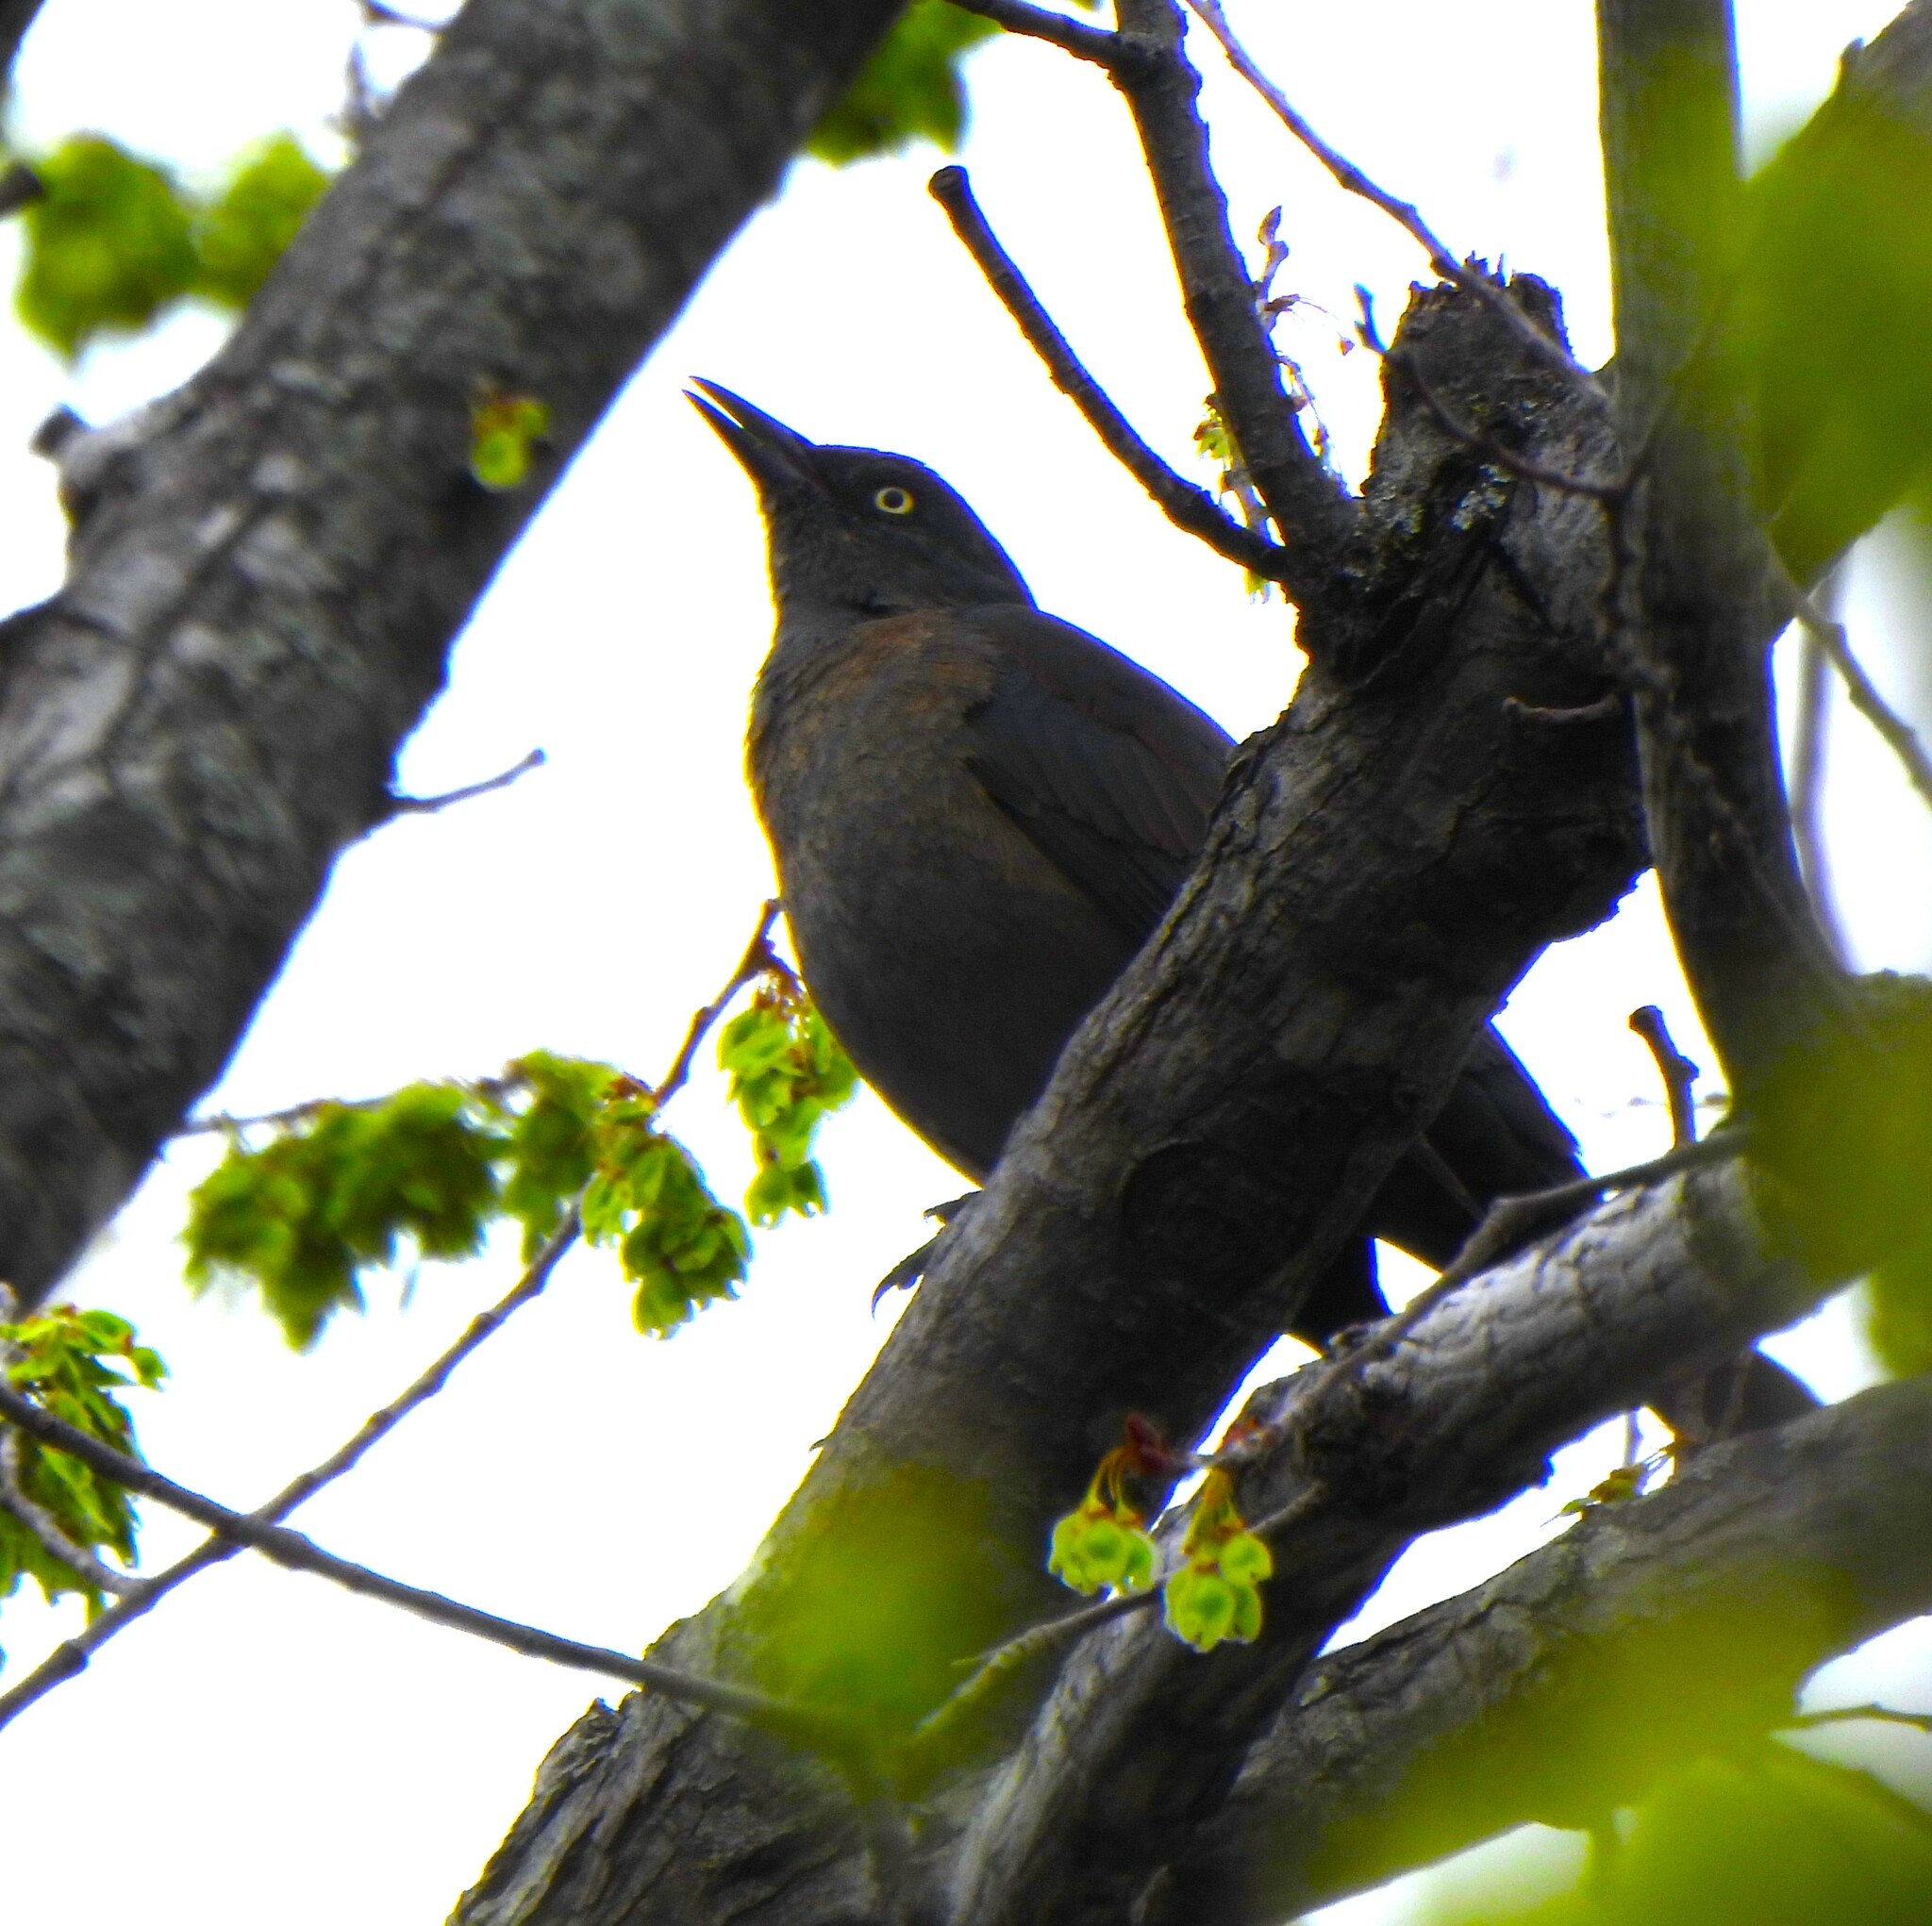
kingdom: Animalia
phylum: Chordata
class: Aves
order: Passeriformes
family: Icteridae
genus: Euphagus
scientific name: Euphagus carolinus
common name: Rusty blackbird
